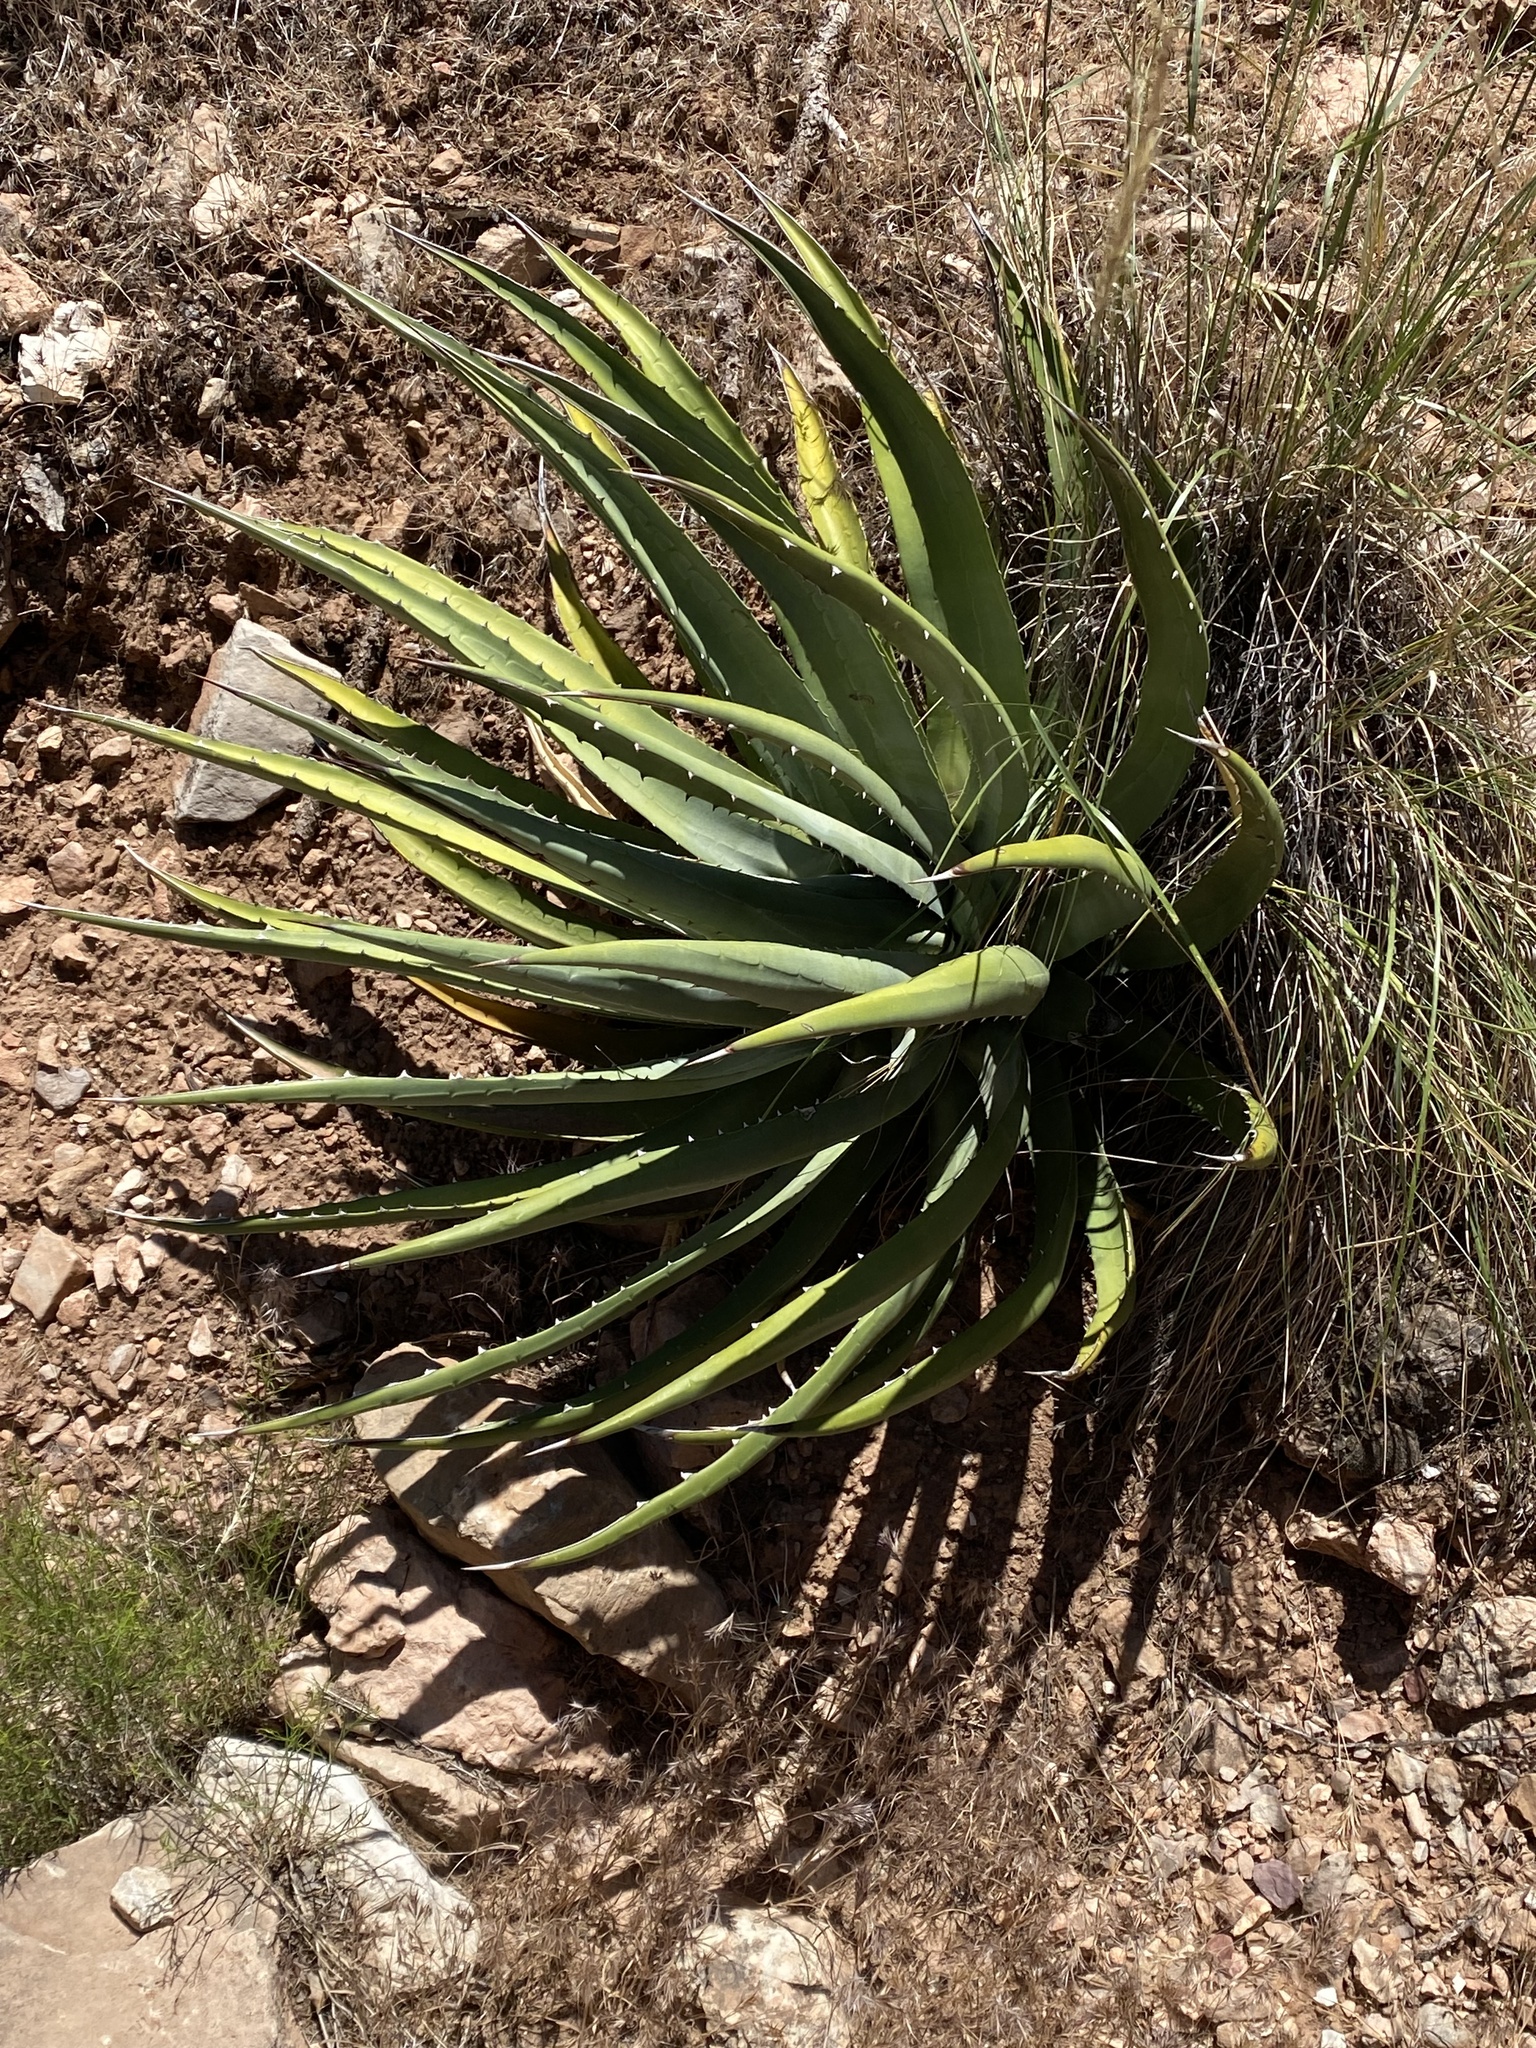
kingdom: Plantae
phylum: Tracheophyta
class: Liliopsida
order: Asparagales
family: Asparagaceae
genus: Agave
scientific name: Agave utahensis
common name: Utah agave
